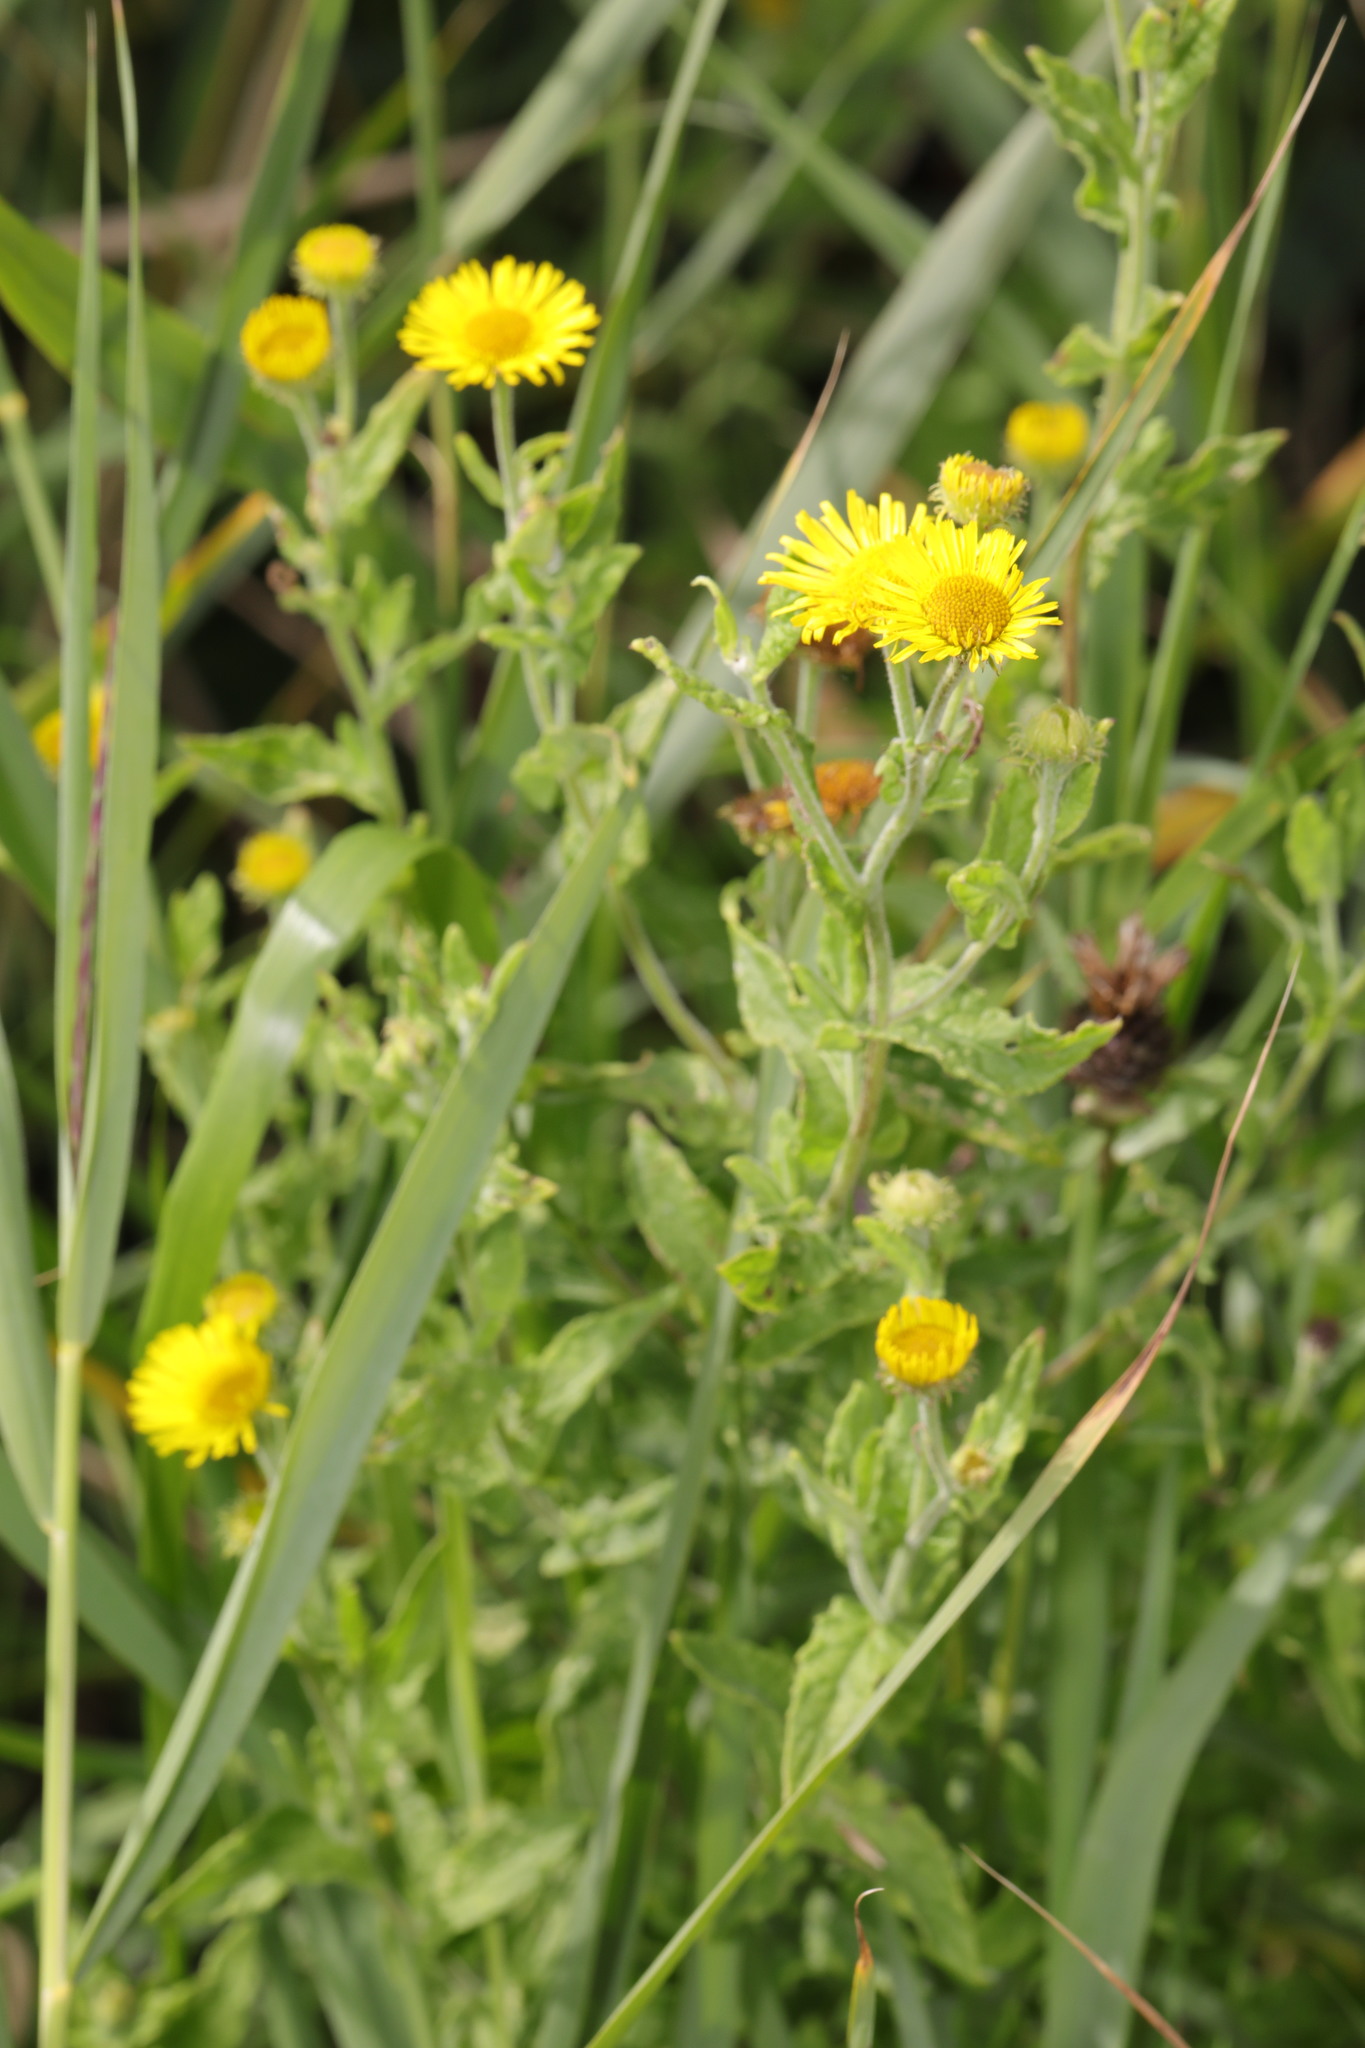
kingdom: Plantae
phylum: Tracheophyta
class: Magnoliopsida
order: Asterales
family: Asteraceae
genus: Pulicaria
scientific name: Pulicaria dysenterica
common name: Common fleabane
